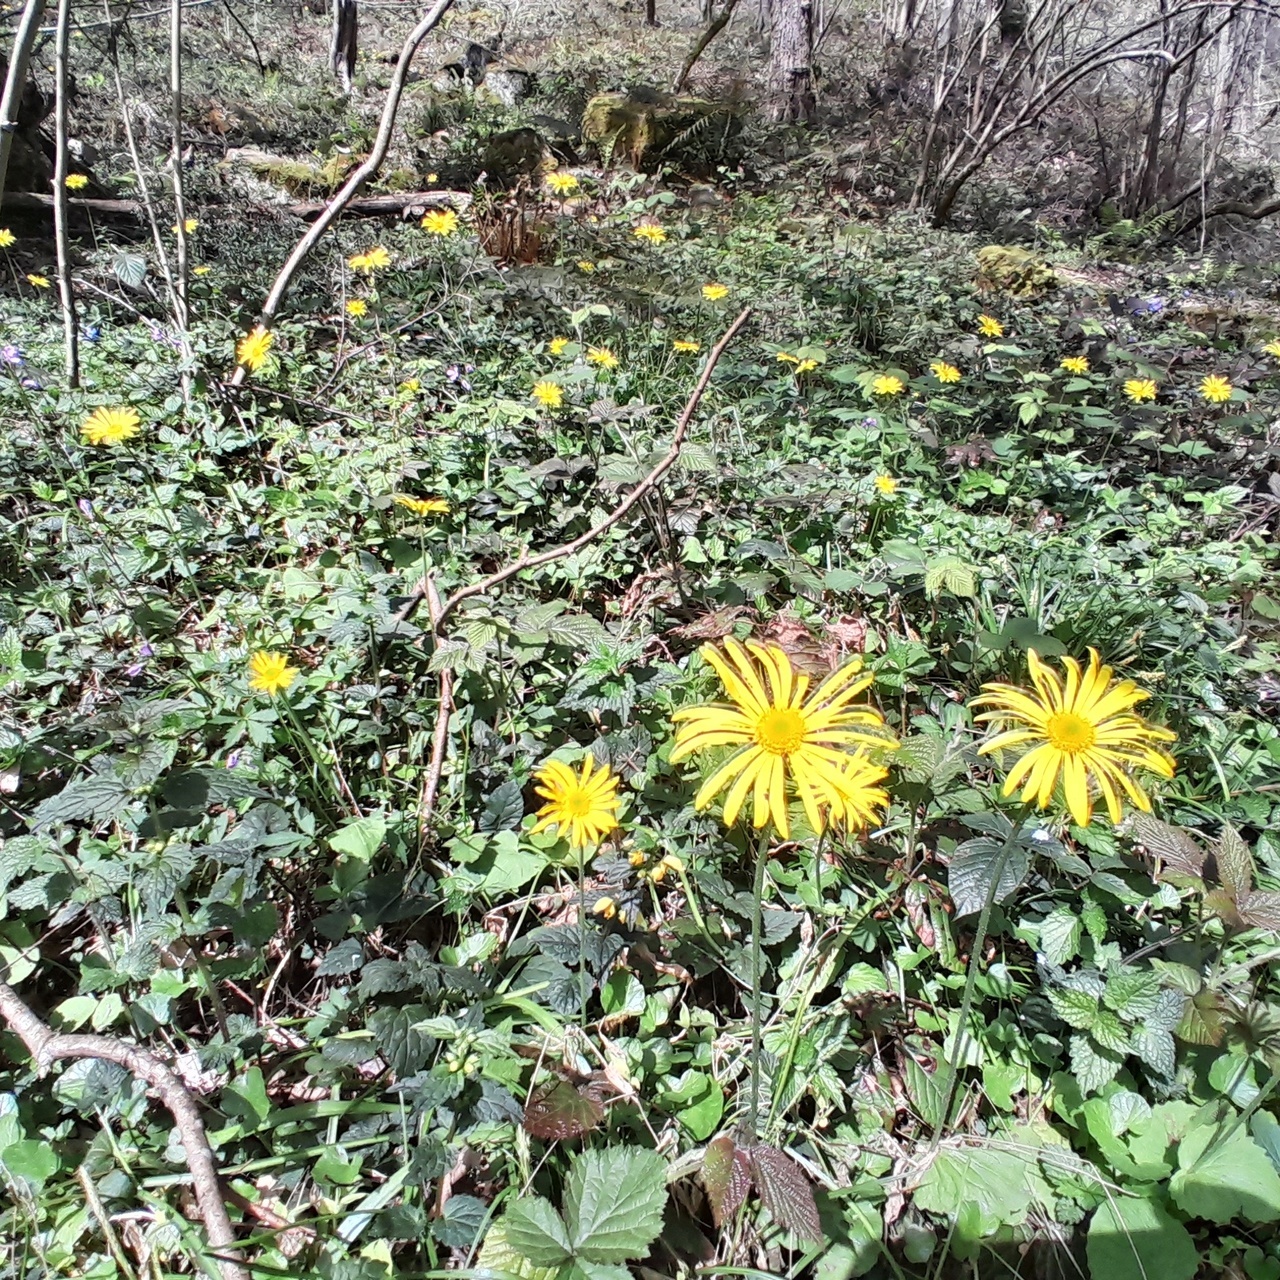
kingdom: Plantae
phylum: Tracheophyta
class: Magnoliopsida
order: Asterales
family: Asteraceae
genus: Doronicum
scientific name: Doronicum
